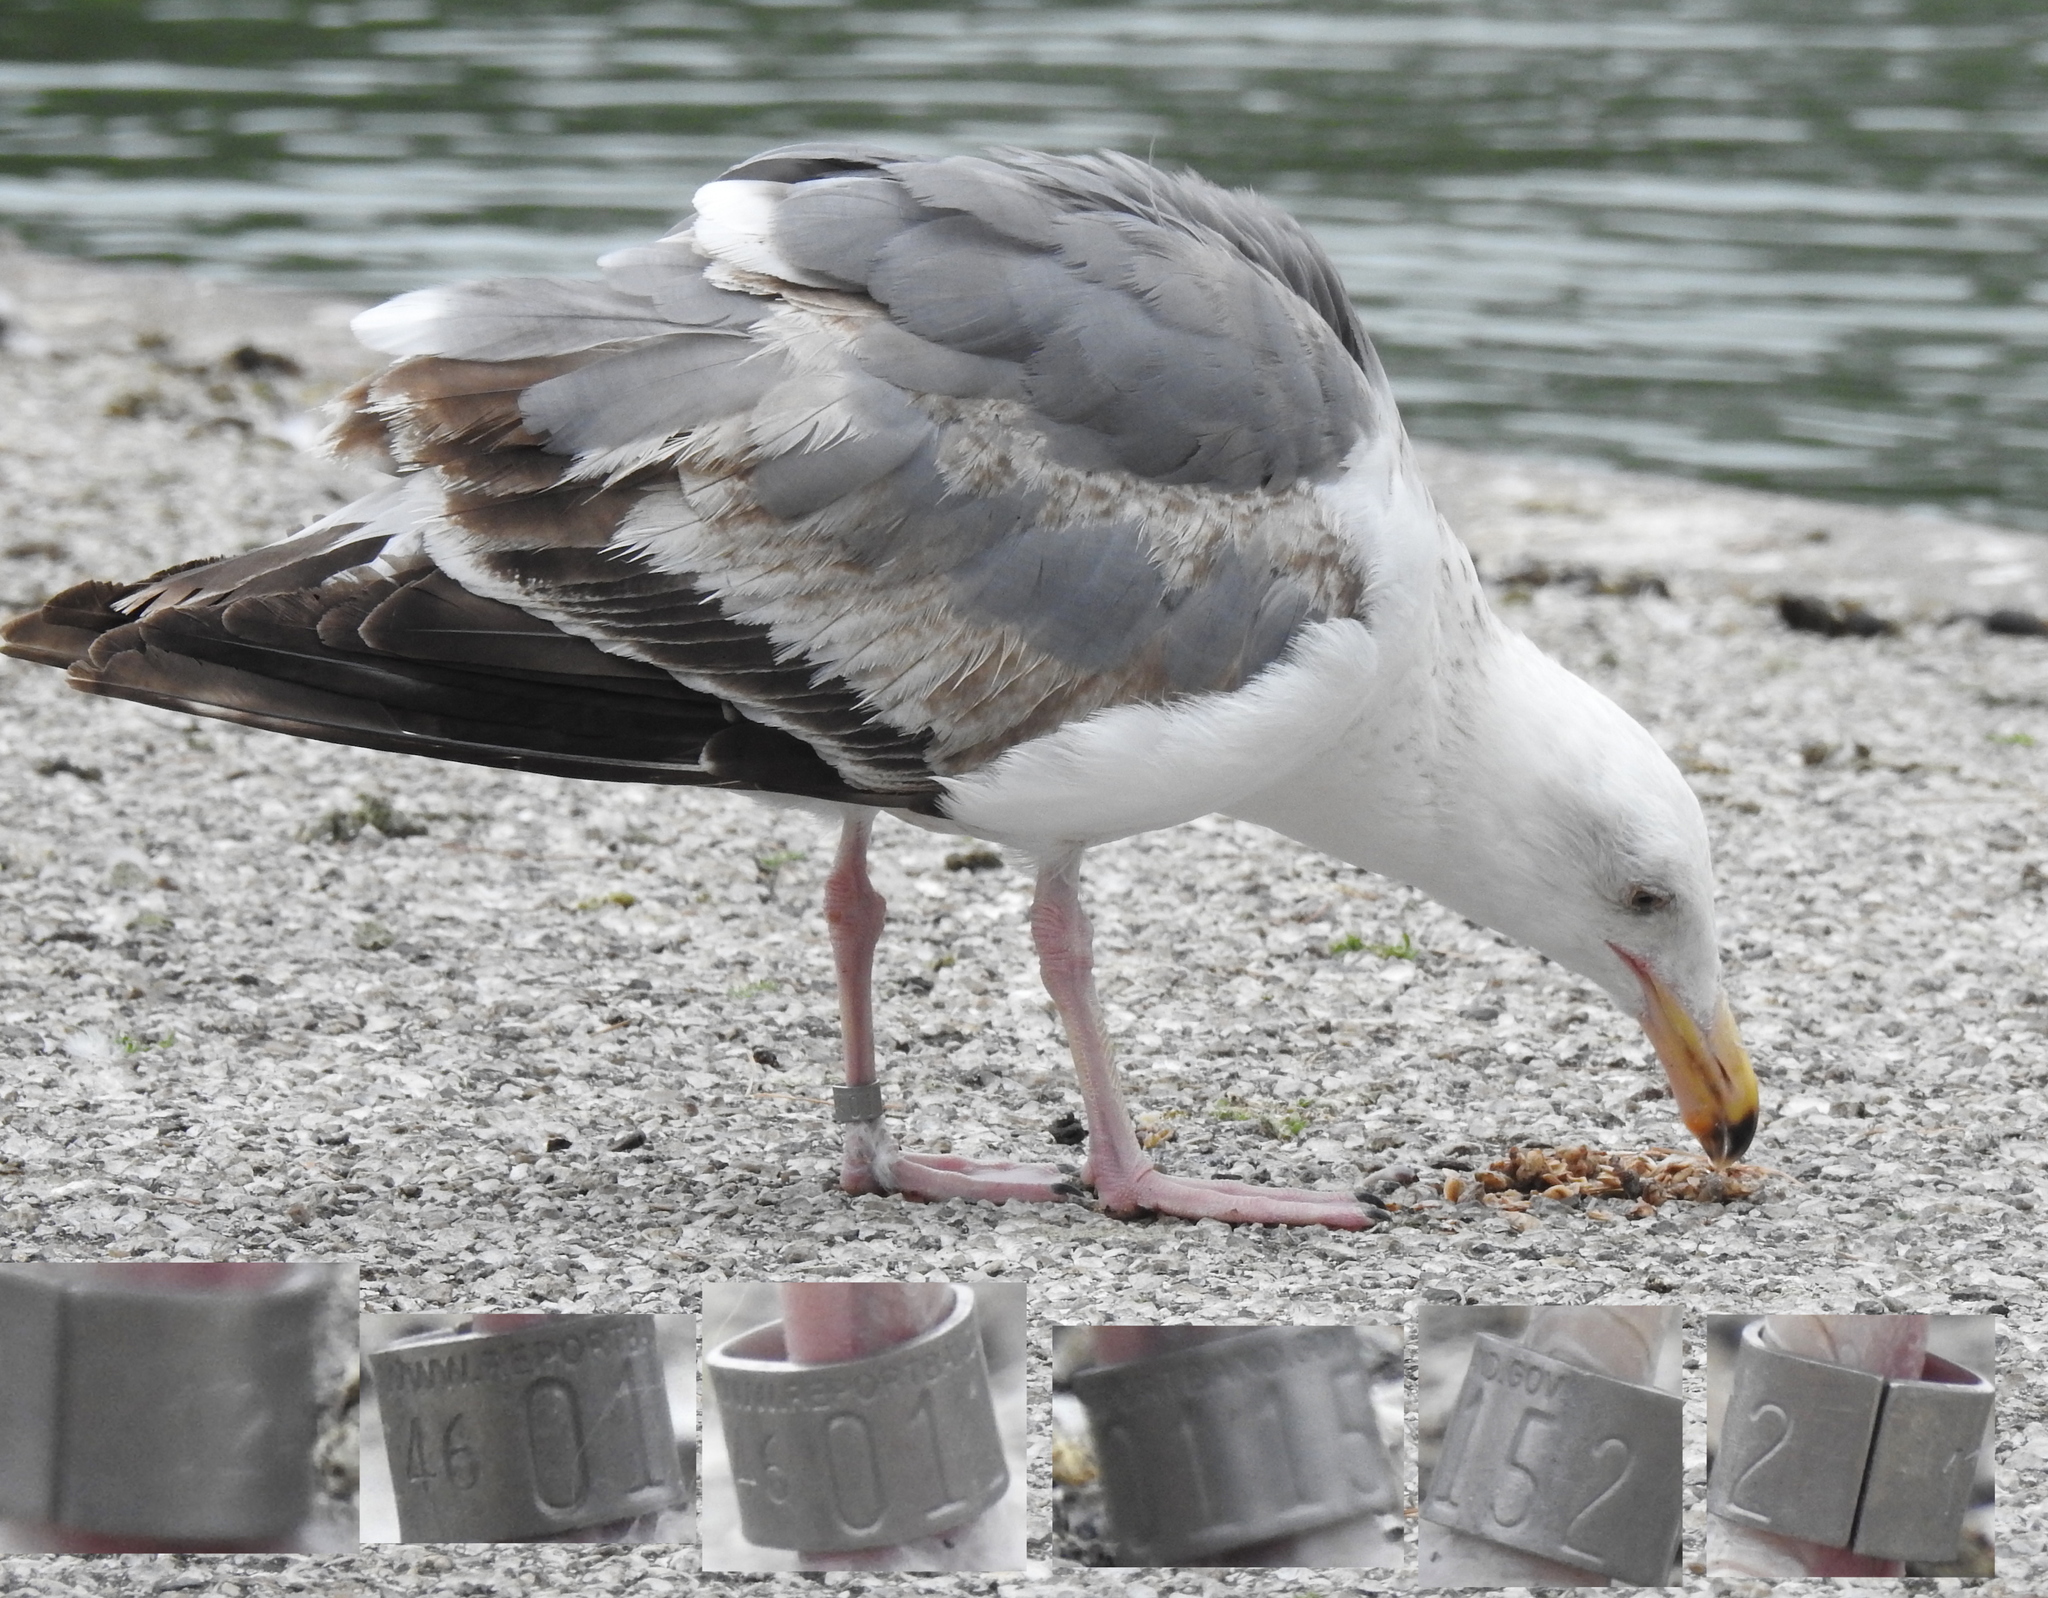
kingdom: Animalia
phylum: Chordata
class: Aves
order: Charadriiformes
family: Laridae
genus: Larus
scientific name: Larus occidentalis
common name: Western gull
